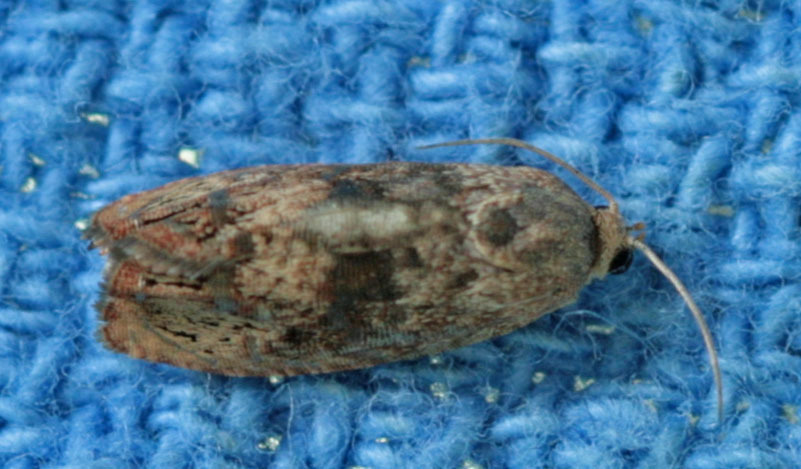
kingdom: Animalia
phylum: Arthropoda
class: Insecta
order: Lepidoptera
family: Tortricidae
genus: Cydia
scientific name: Cydia latiferreana
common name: Filbertworm moth
